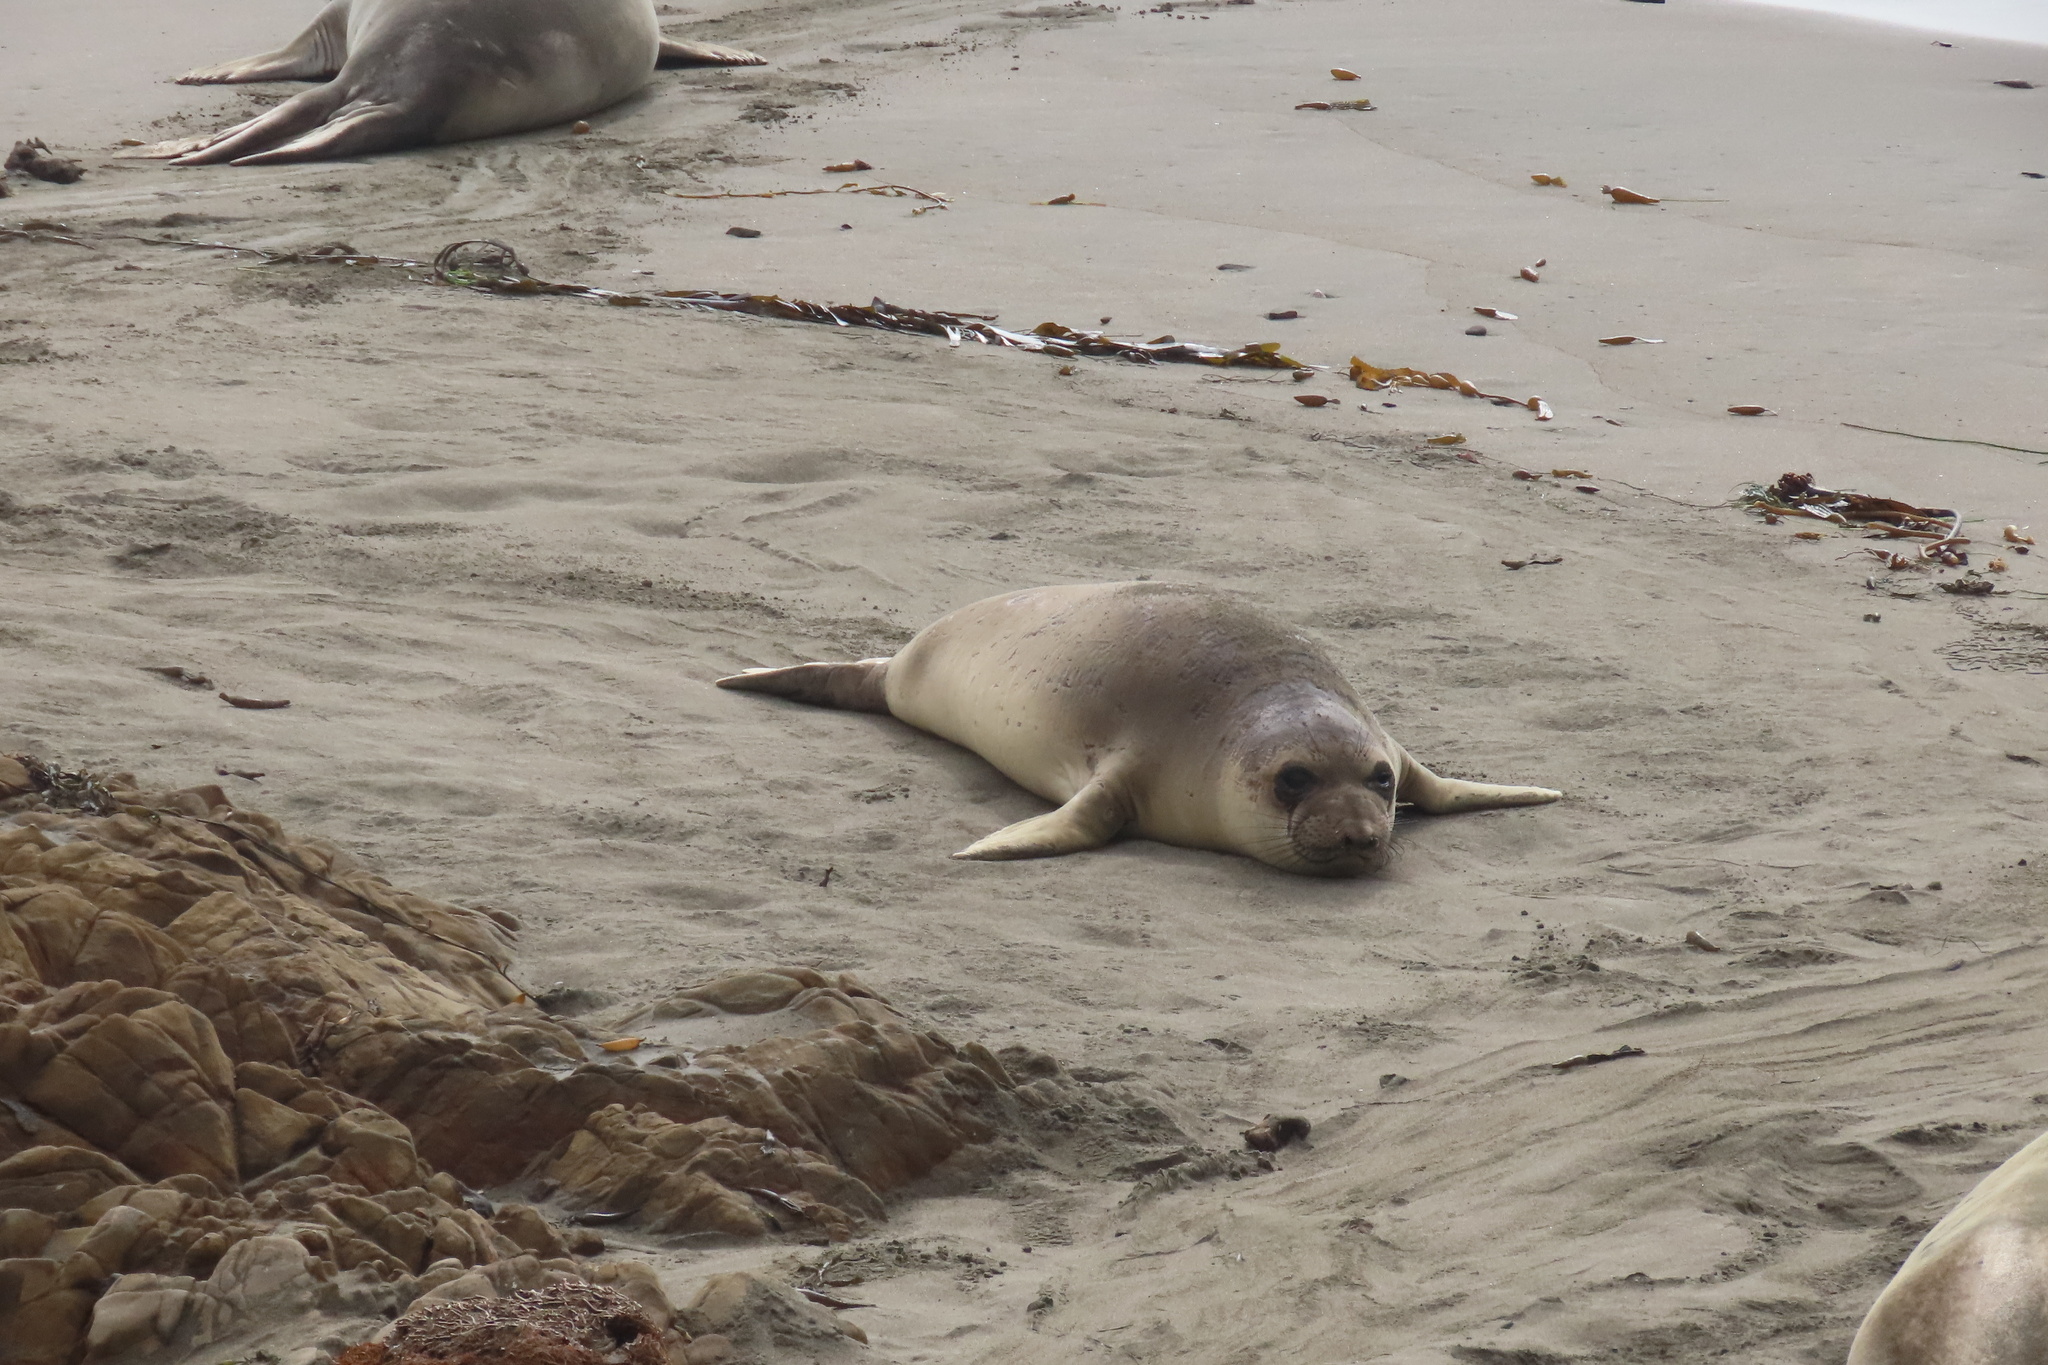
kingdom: Animalia
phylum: Chordata
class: Mammalia
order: Carnivora
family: Phocidae
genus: Mirounga
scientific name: Mirounga angustirostris
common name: Northern elephant seal
